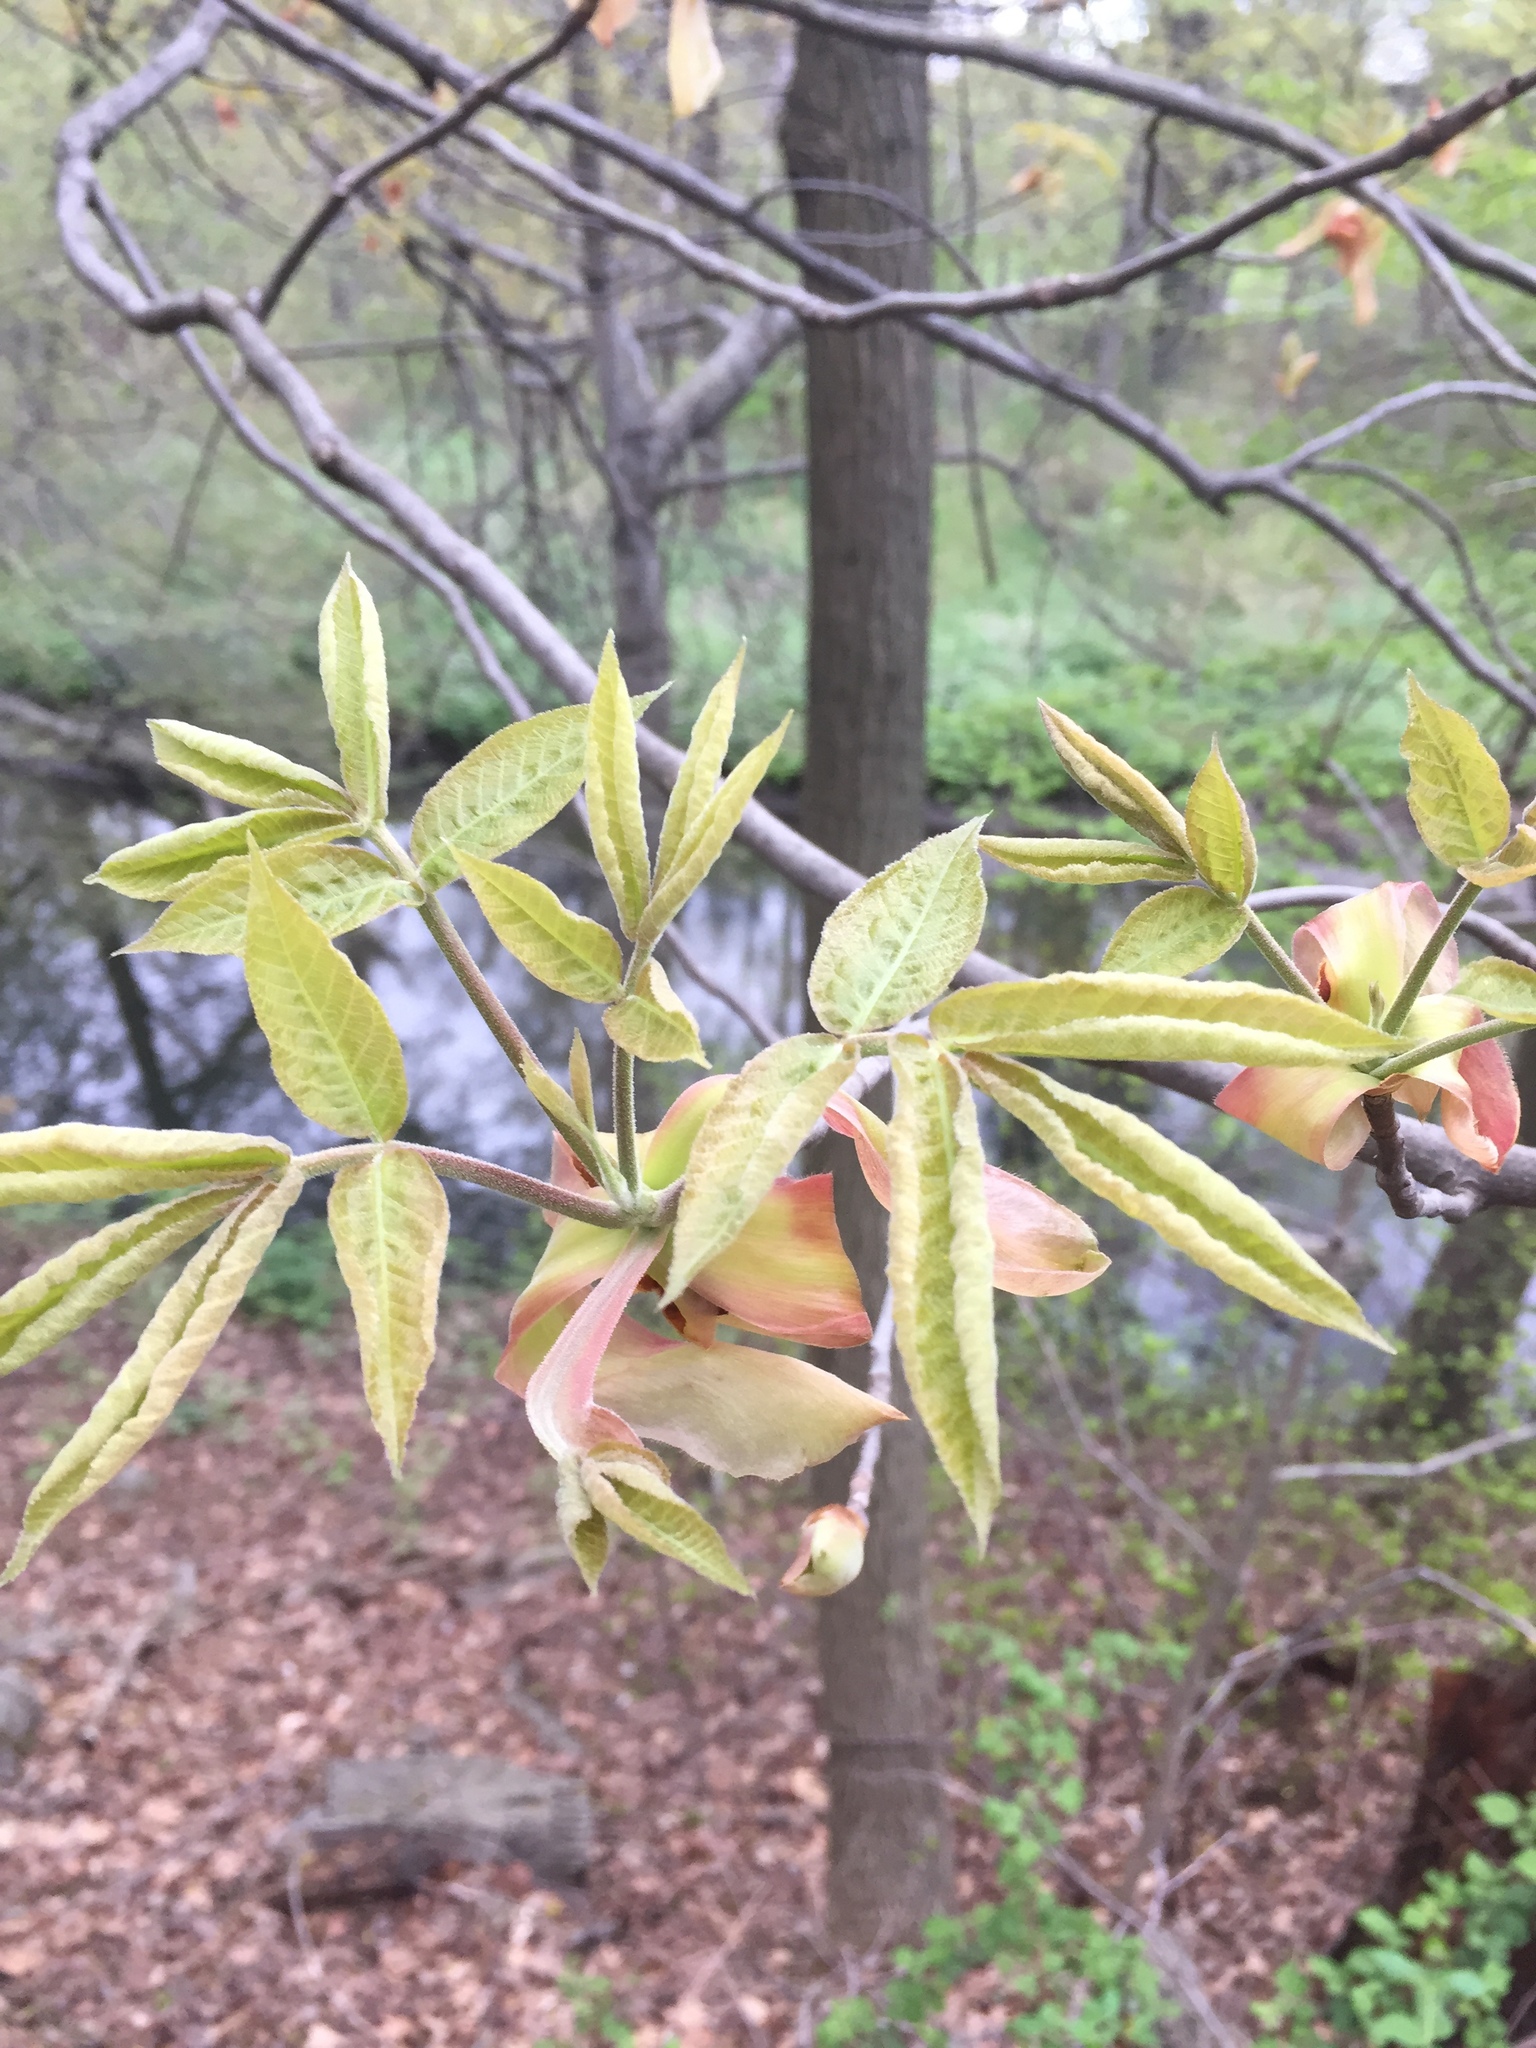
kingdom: Plantae
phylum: Tracheophyta
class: Magnoliopsida
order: Fagales
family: Juglandaceae
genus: Carya
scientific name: Carya glabra
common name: Pignut hickory
